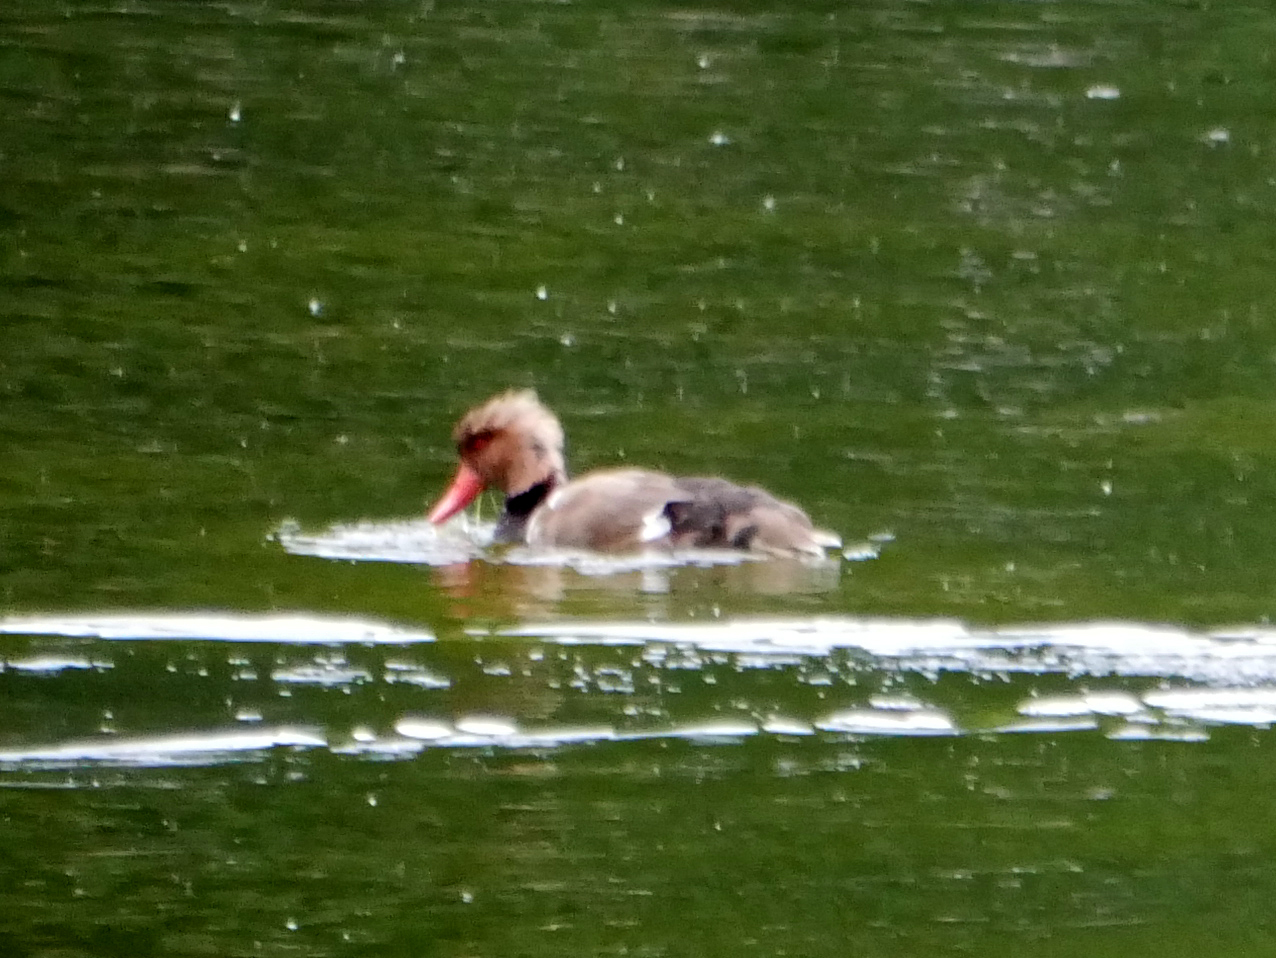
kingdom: Animalia
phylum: Chordata
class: Aves
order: Anseriformes
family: Anatidae
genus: Netta
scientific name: Netta rufina
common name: Red-crested pochard
